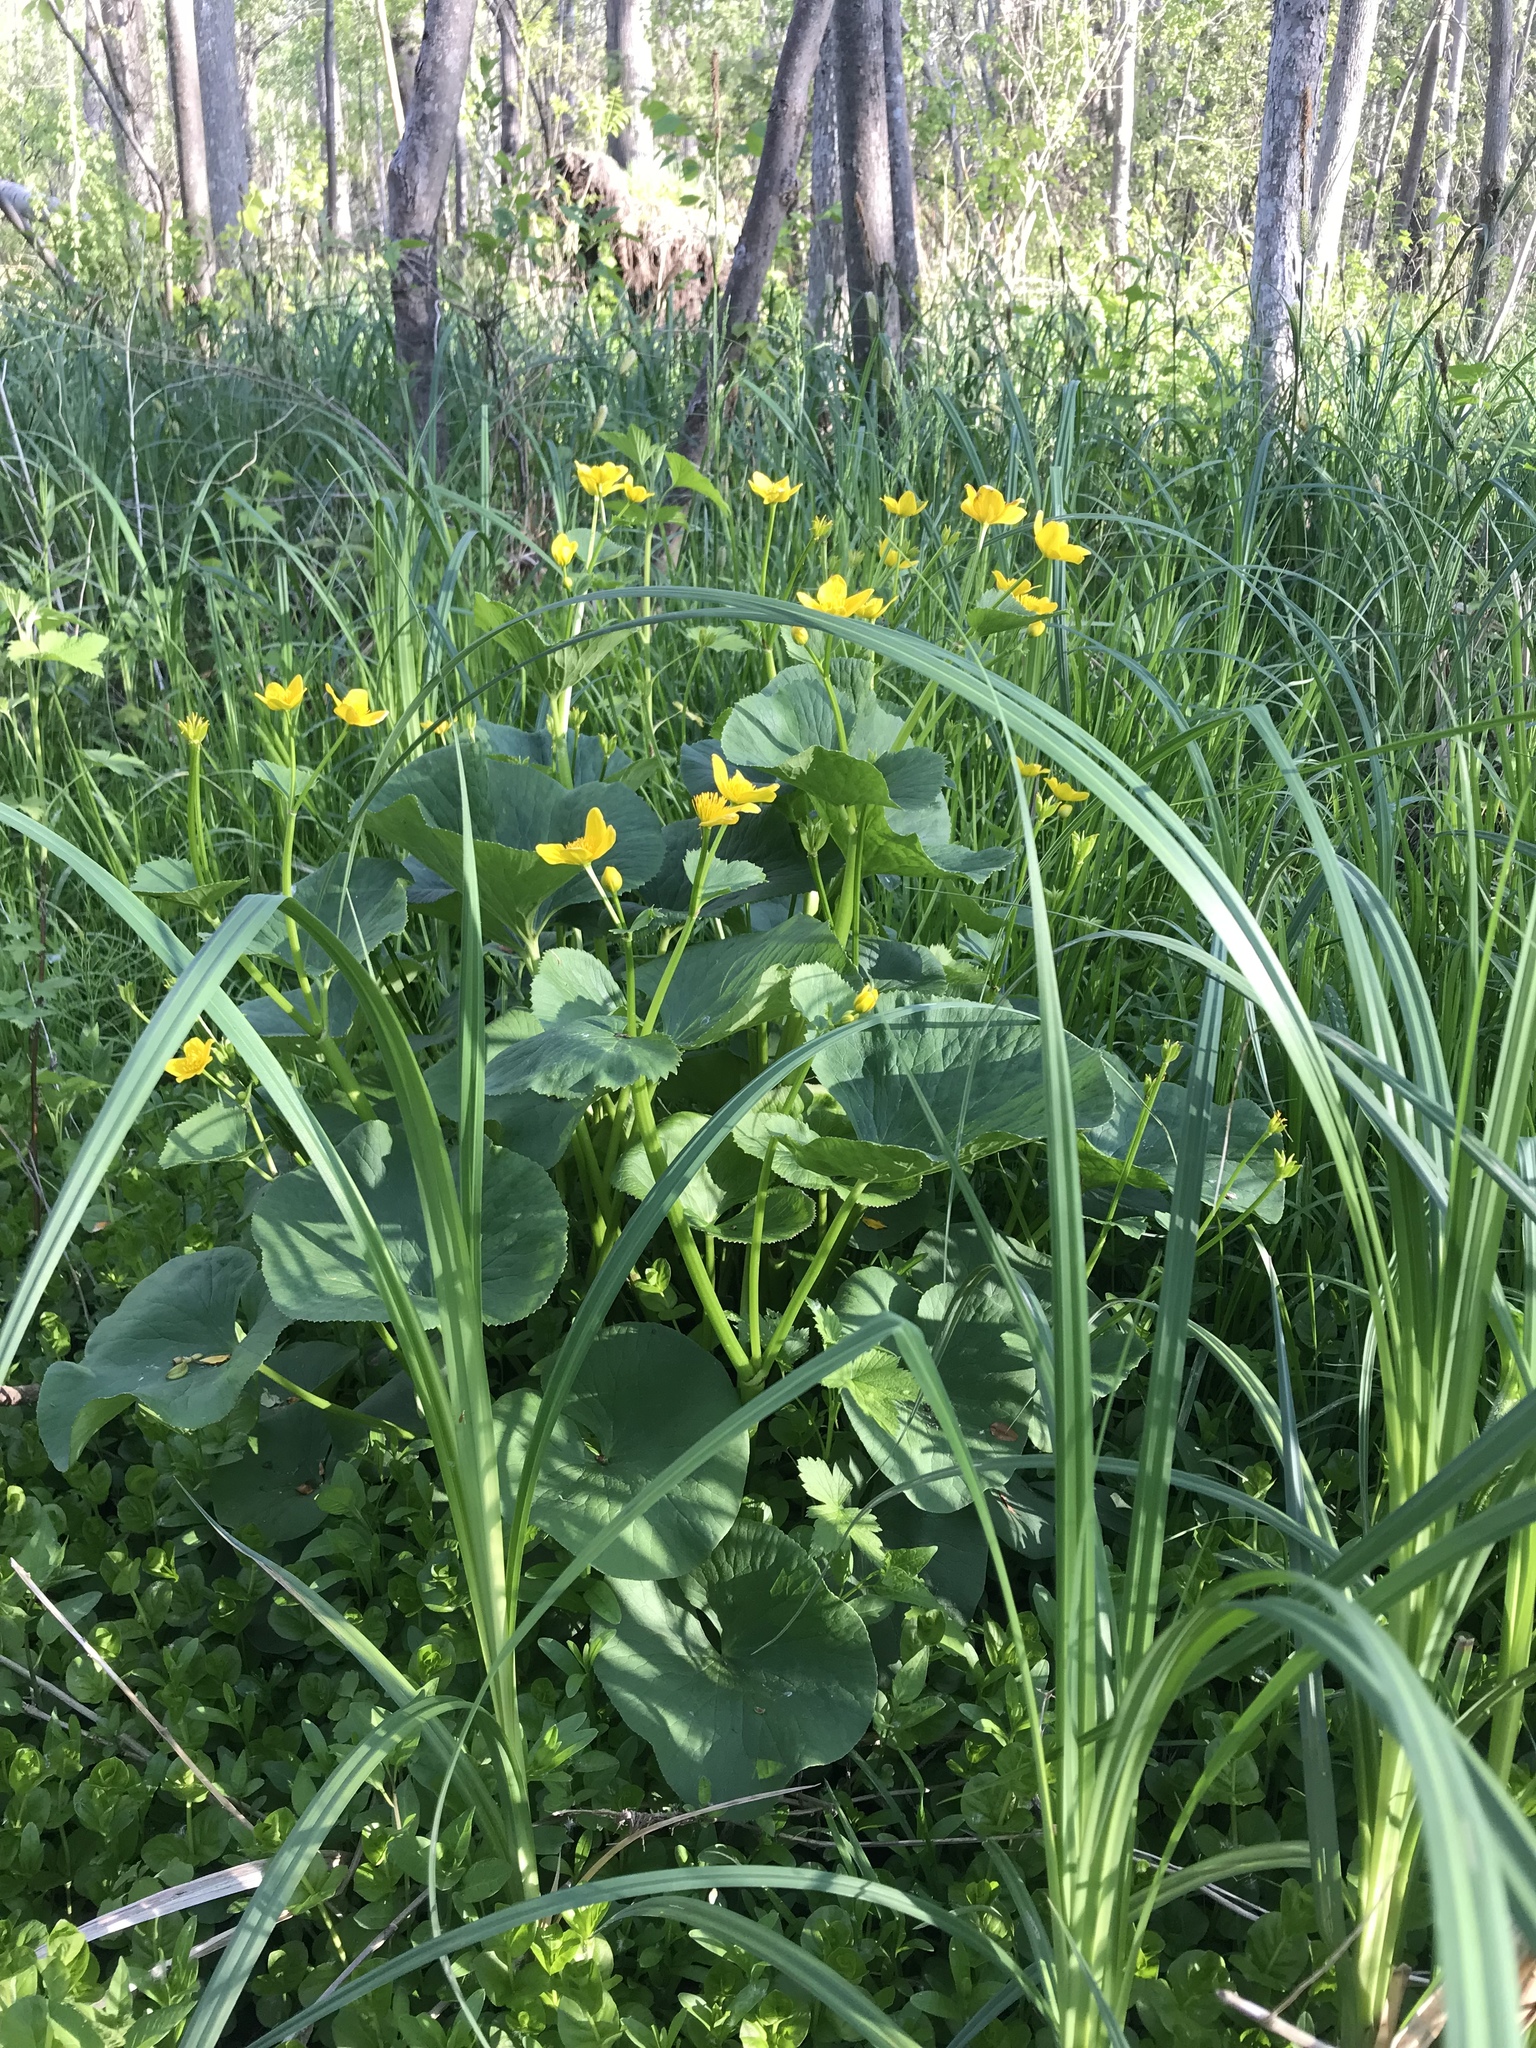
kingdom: Plantae
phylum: Tracheophyta
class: Magnoliopsida
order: Ranunculales
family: Ranunculaceae
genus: Caltha
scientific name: Caltha palustris
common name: Marsh marigold
